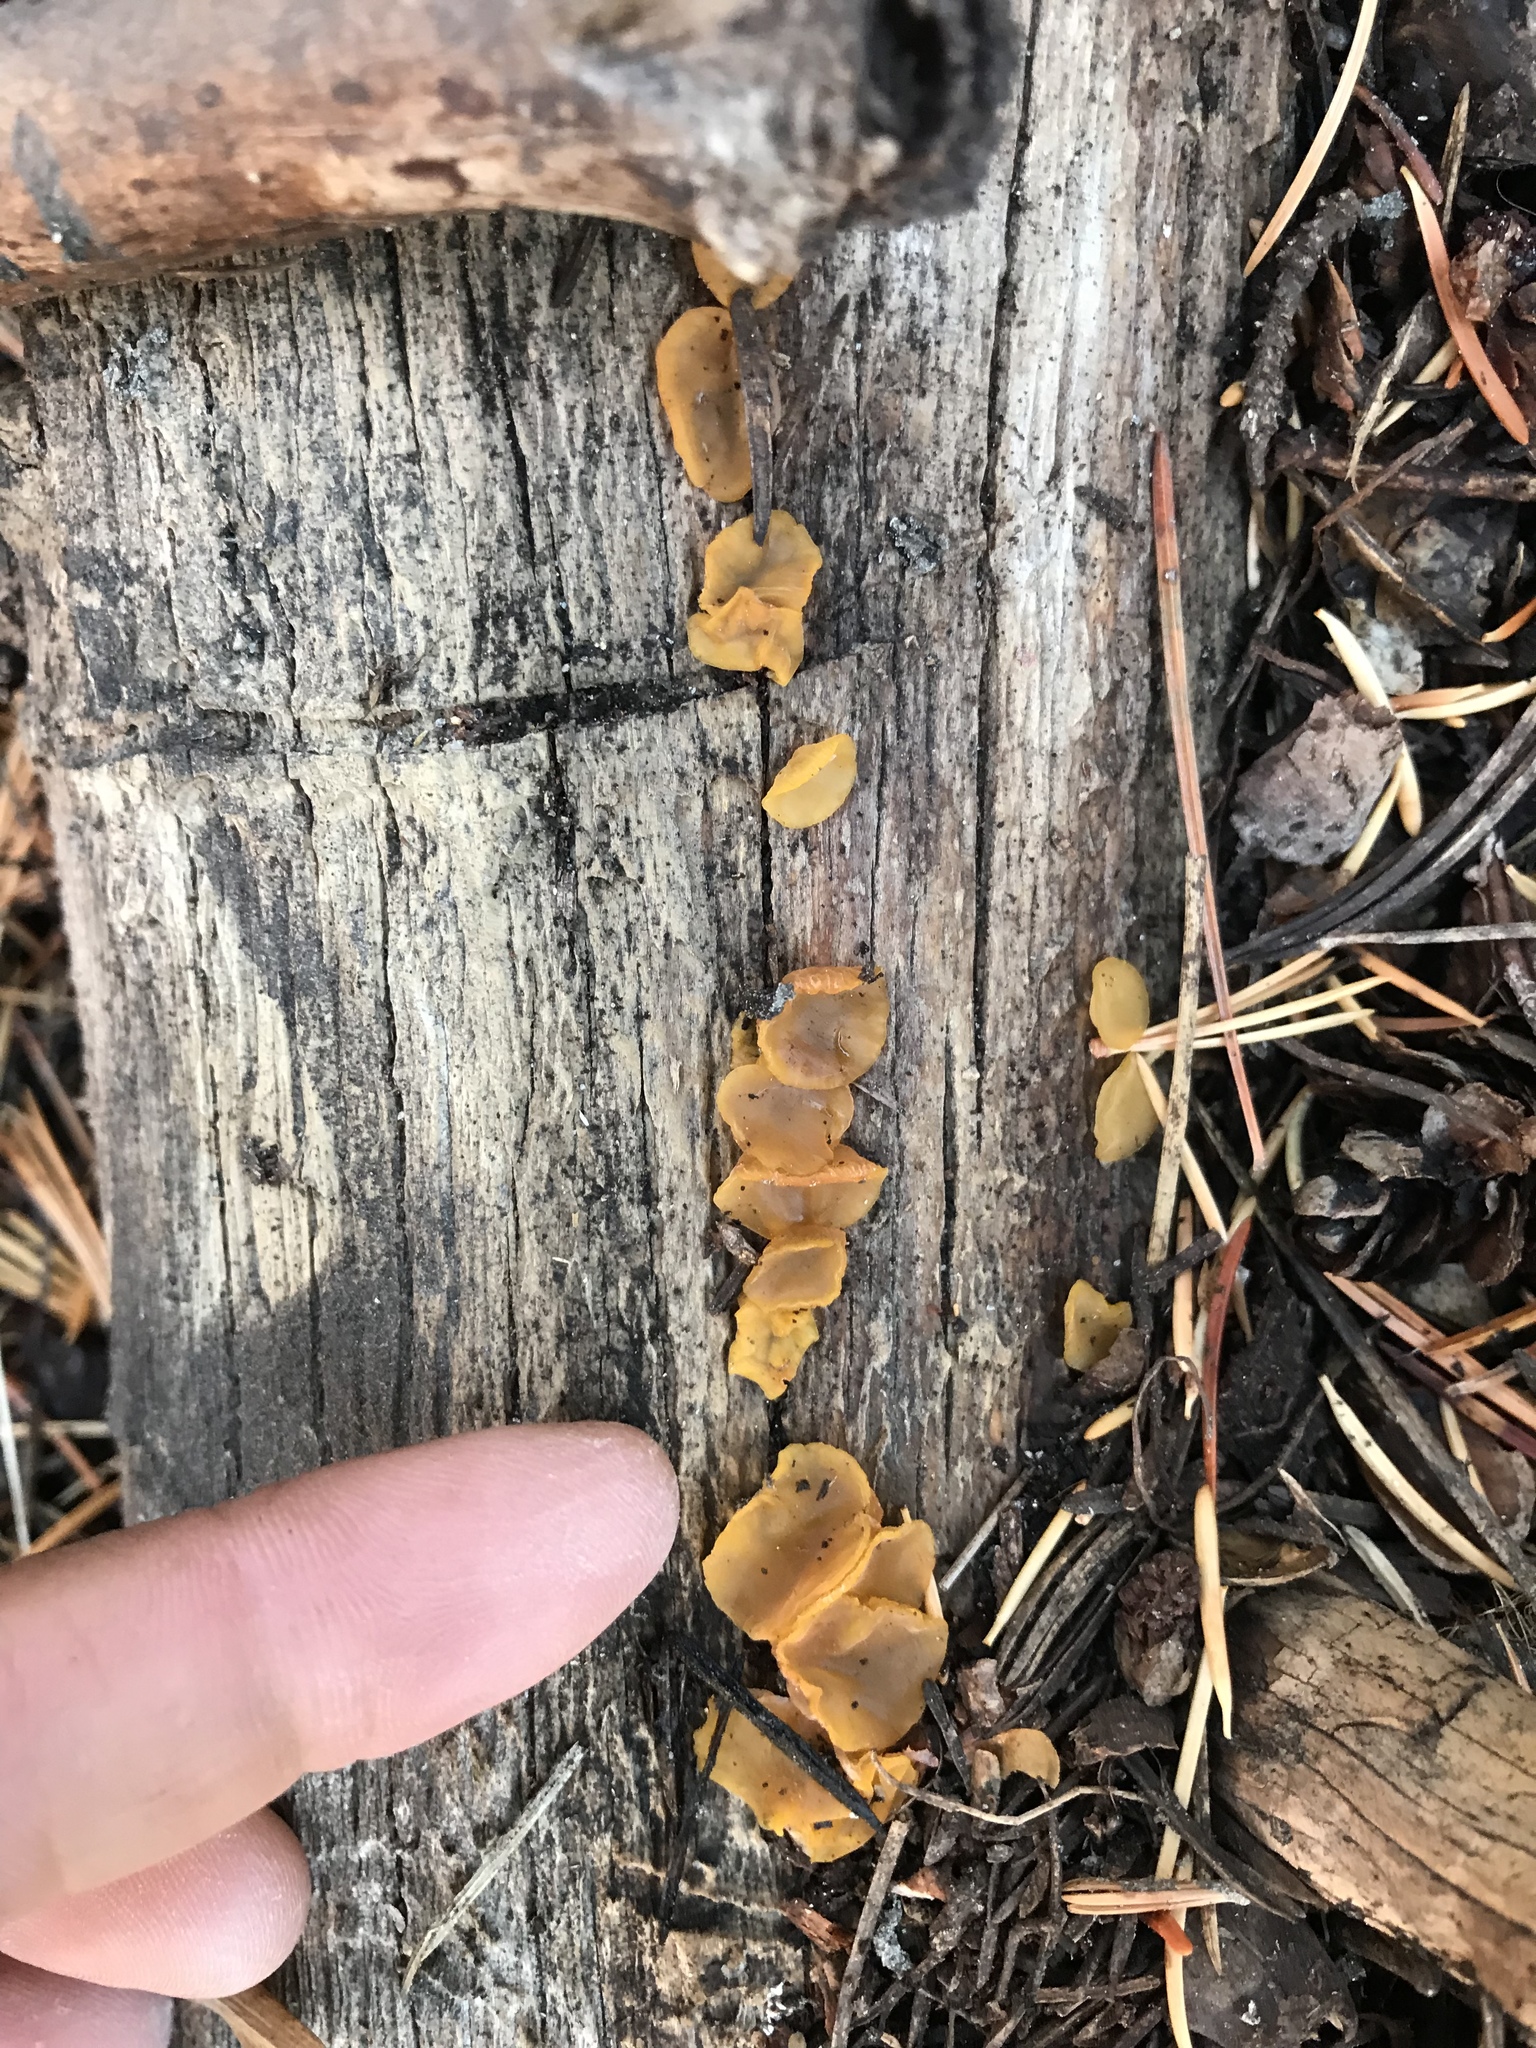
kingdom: Fungi
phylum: Basidiomycota
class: Dacrymycetes
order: Dacrymycetales
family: Dacrymycetaceae
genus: Guepiniopsis
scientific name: Guepiniopsis alpina
